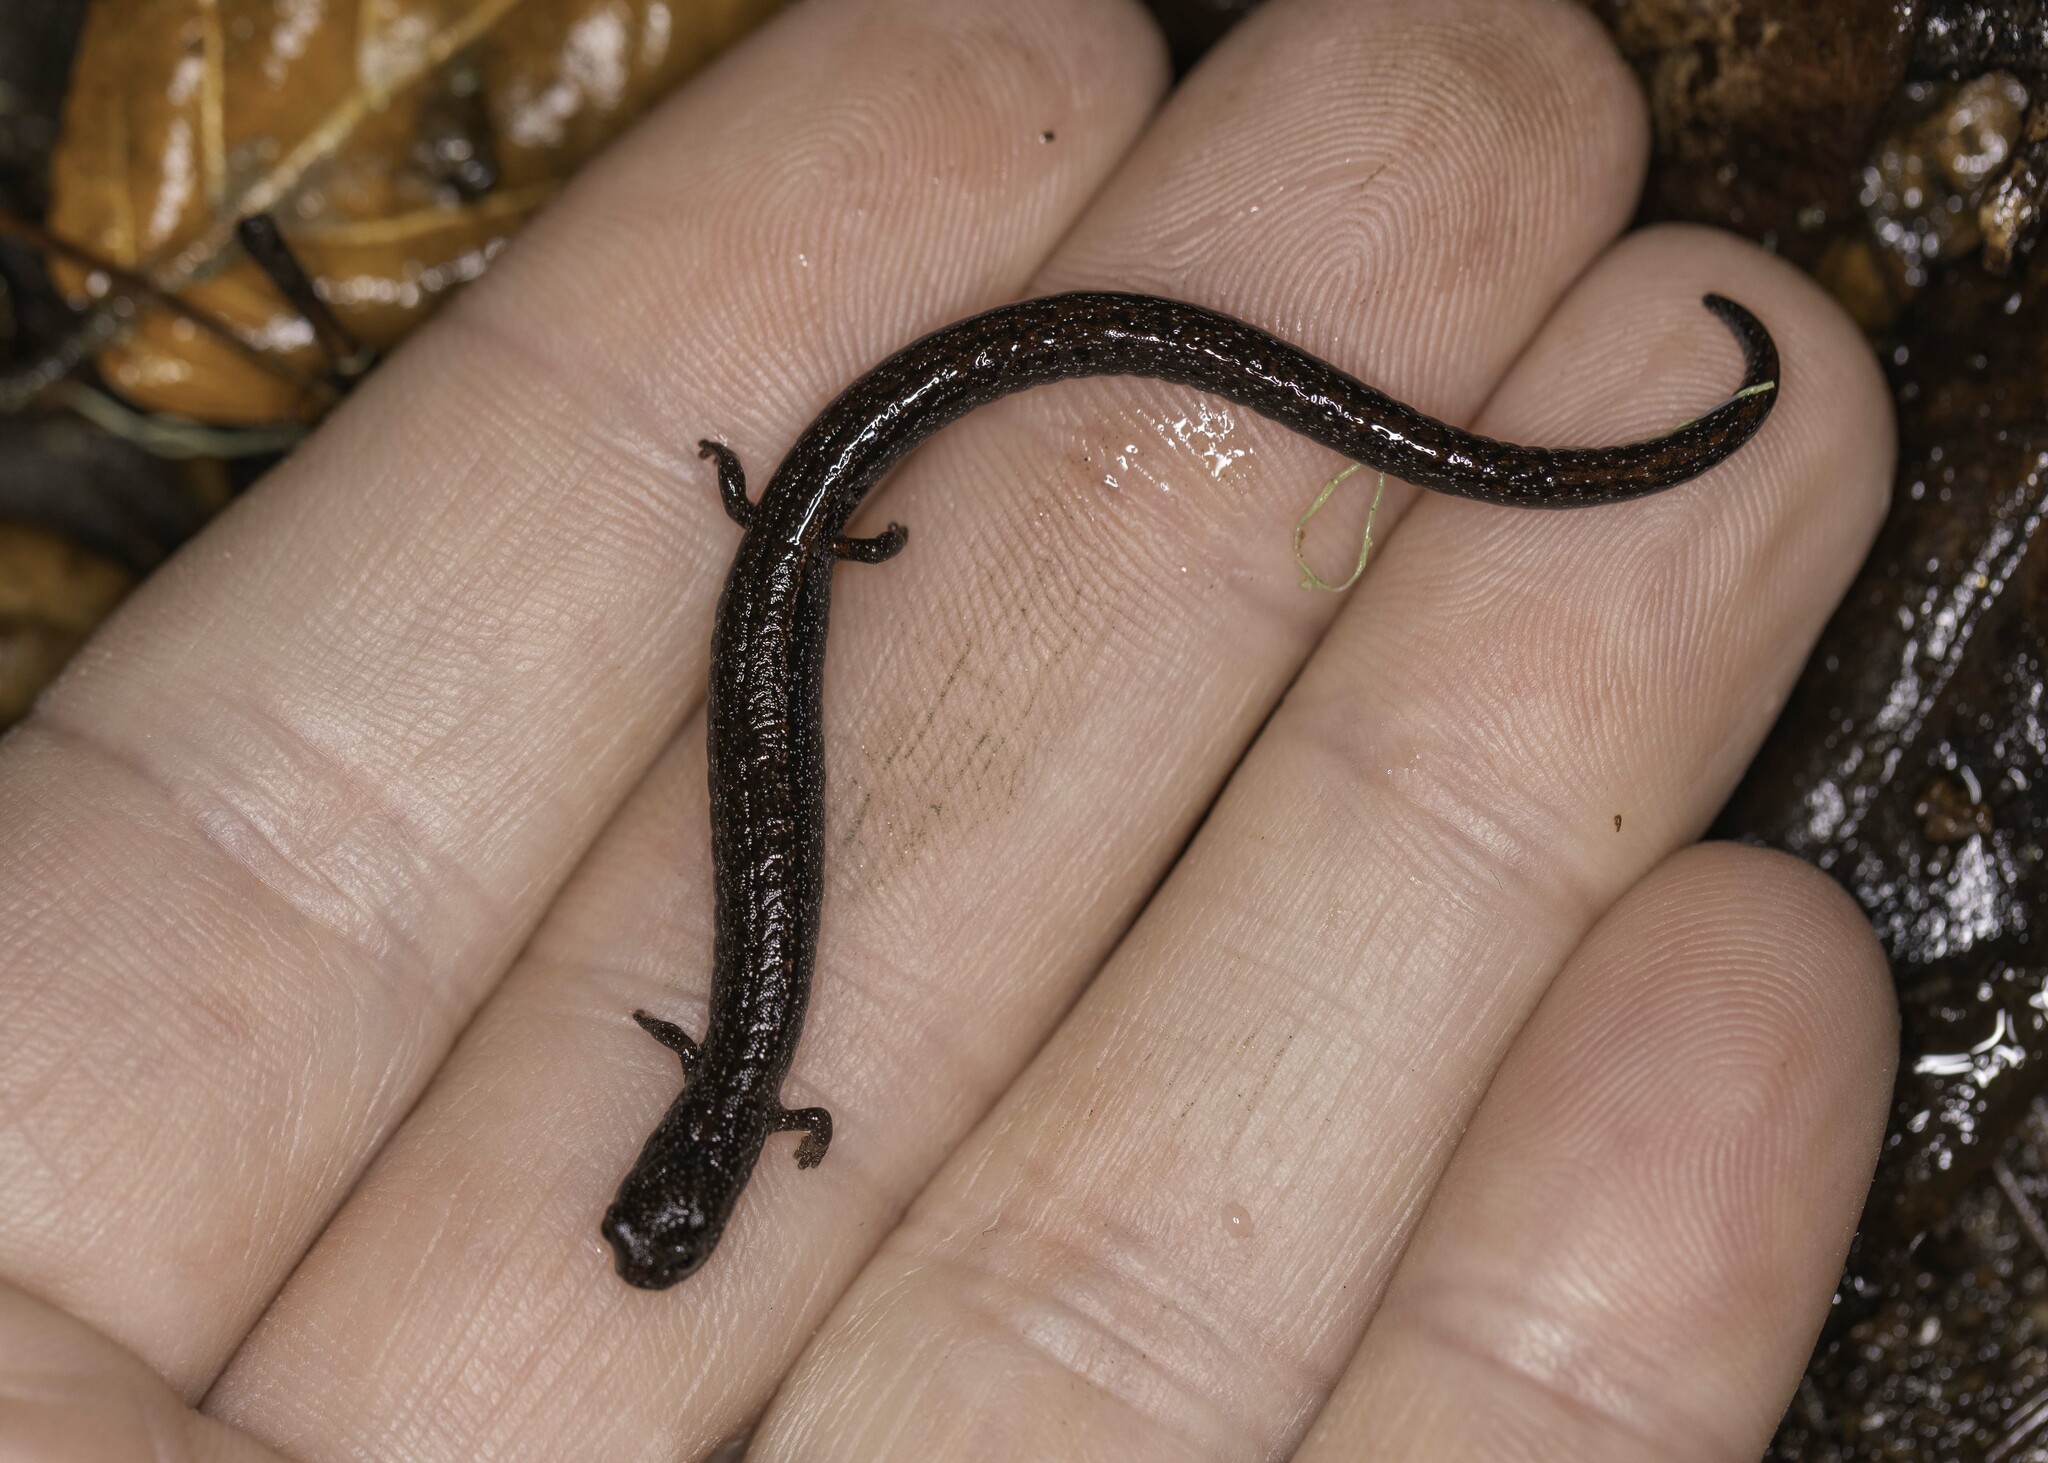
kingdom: Animalia
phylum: Chordata
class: Amphibia
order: Caudata
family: Plethodontidae
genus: Batrachoseps
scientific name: Batrachoseps luciae
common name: Santa lucia mountains slender salamander
